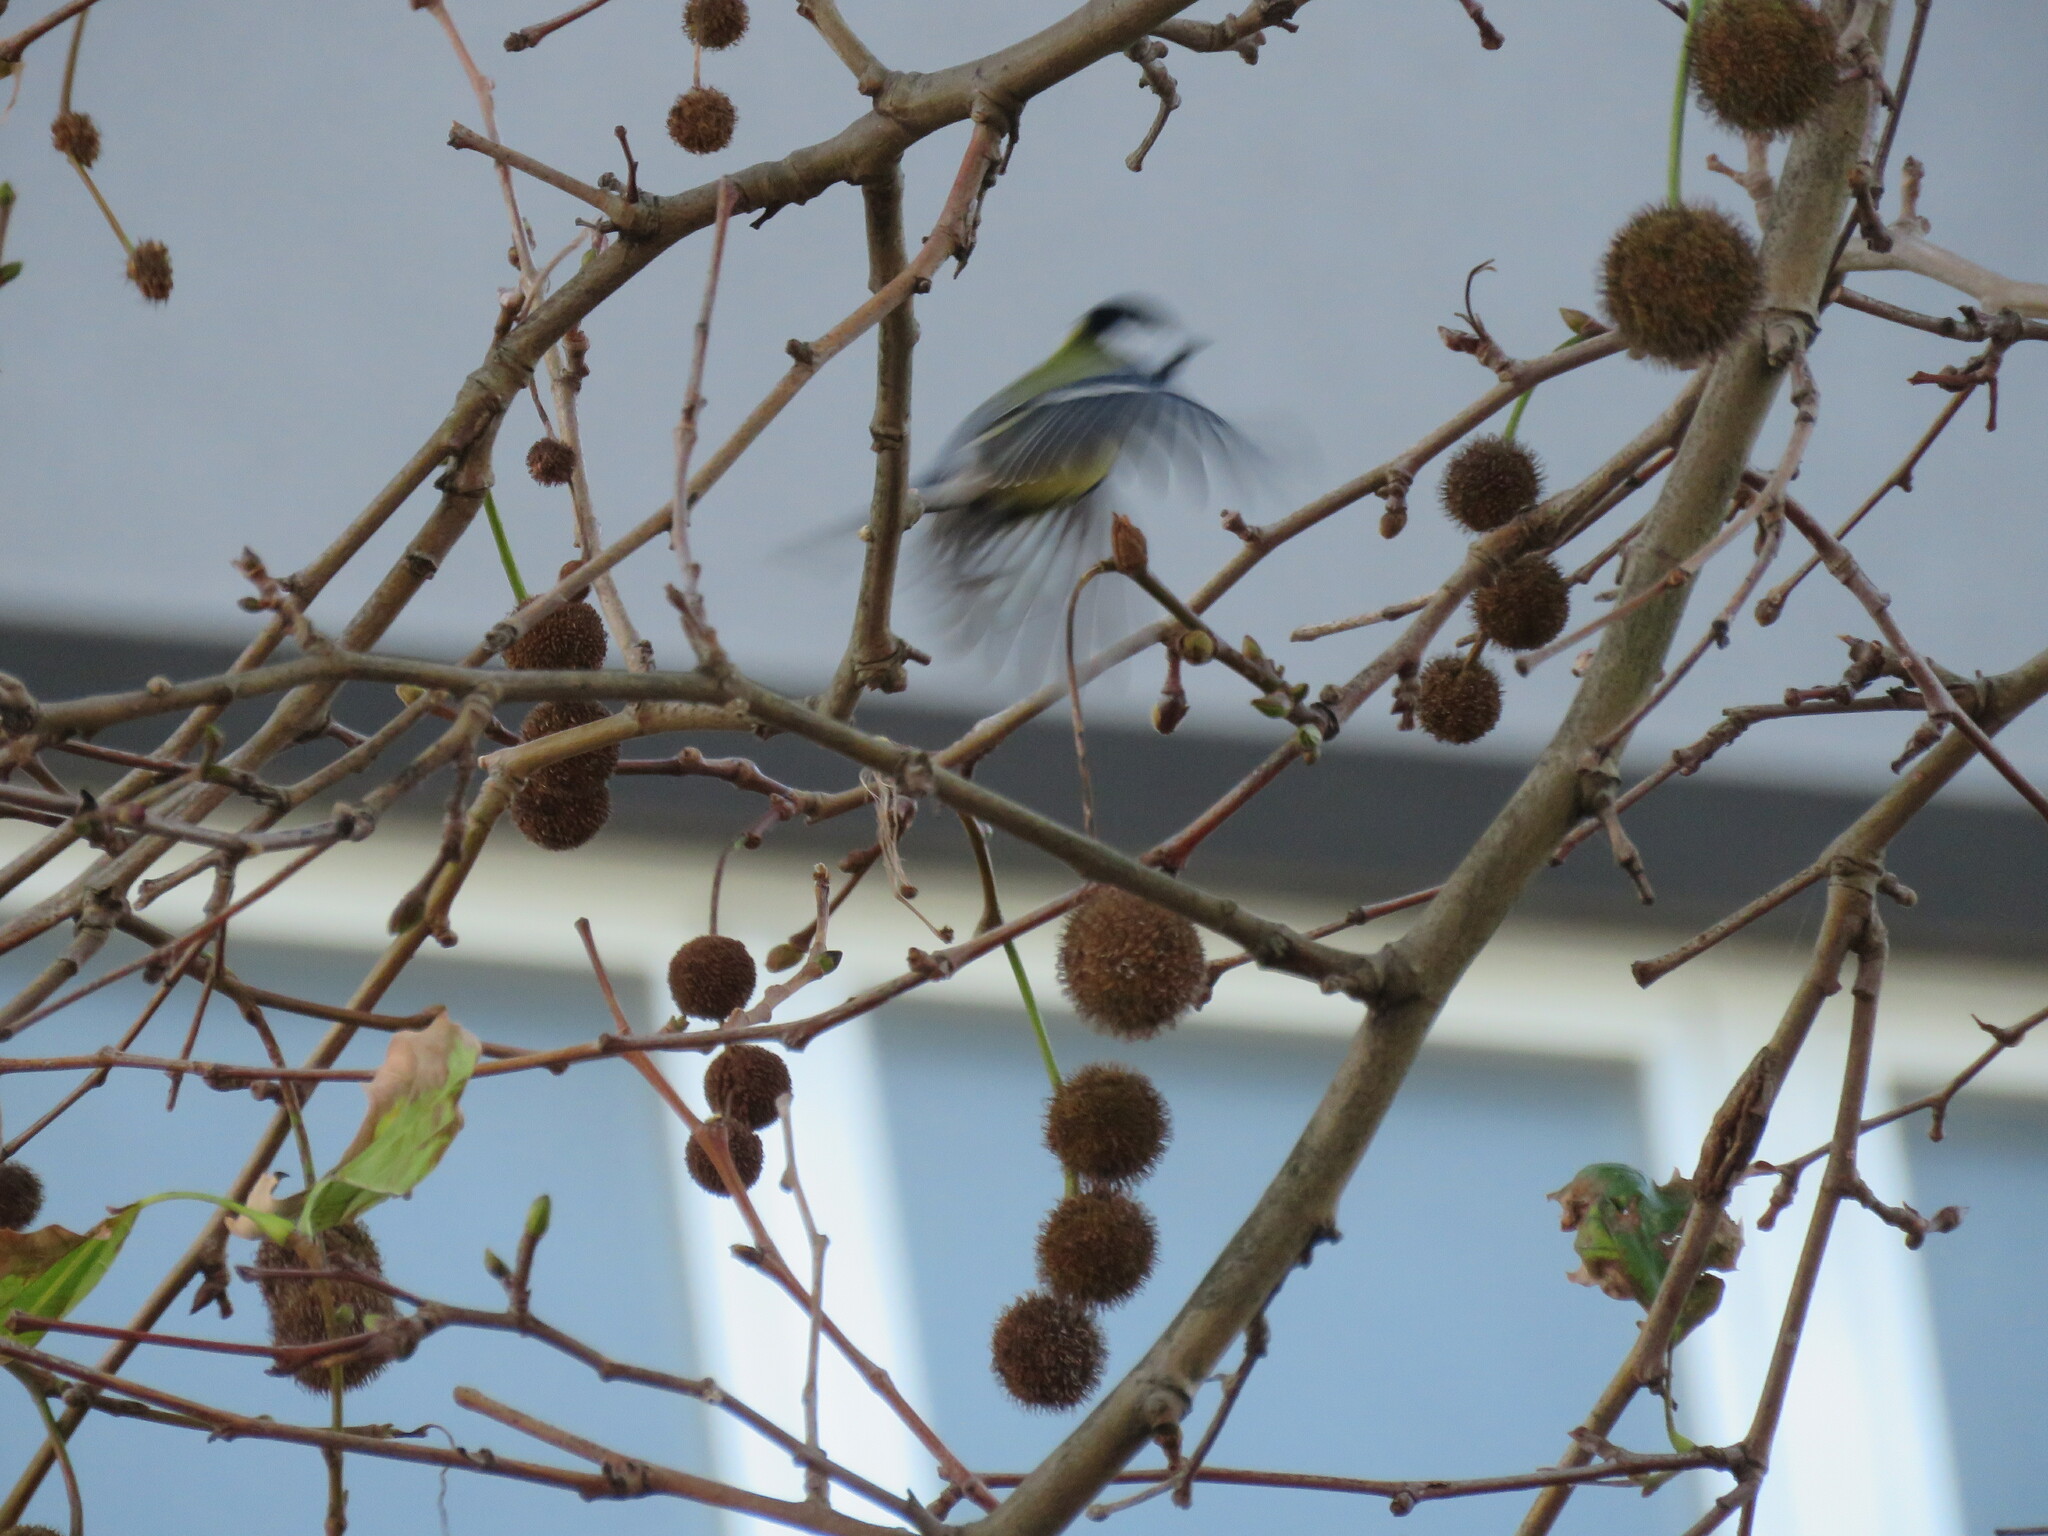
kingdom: Animalia
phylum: Chordata
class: Aves
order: Passeriformes
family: Paridae
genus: Parus
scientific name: Parus major
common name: Great tit
